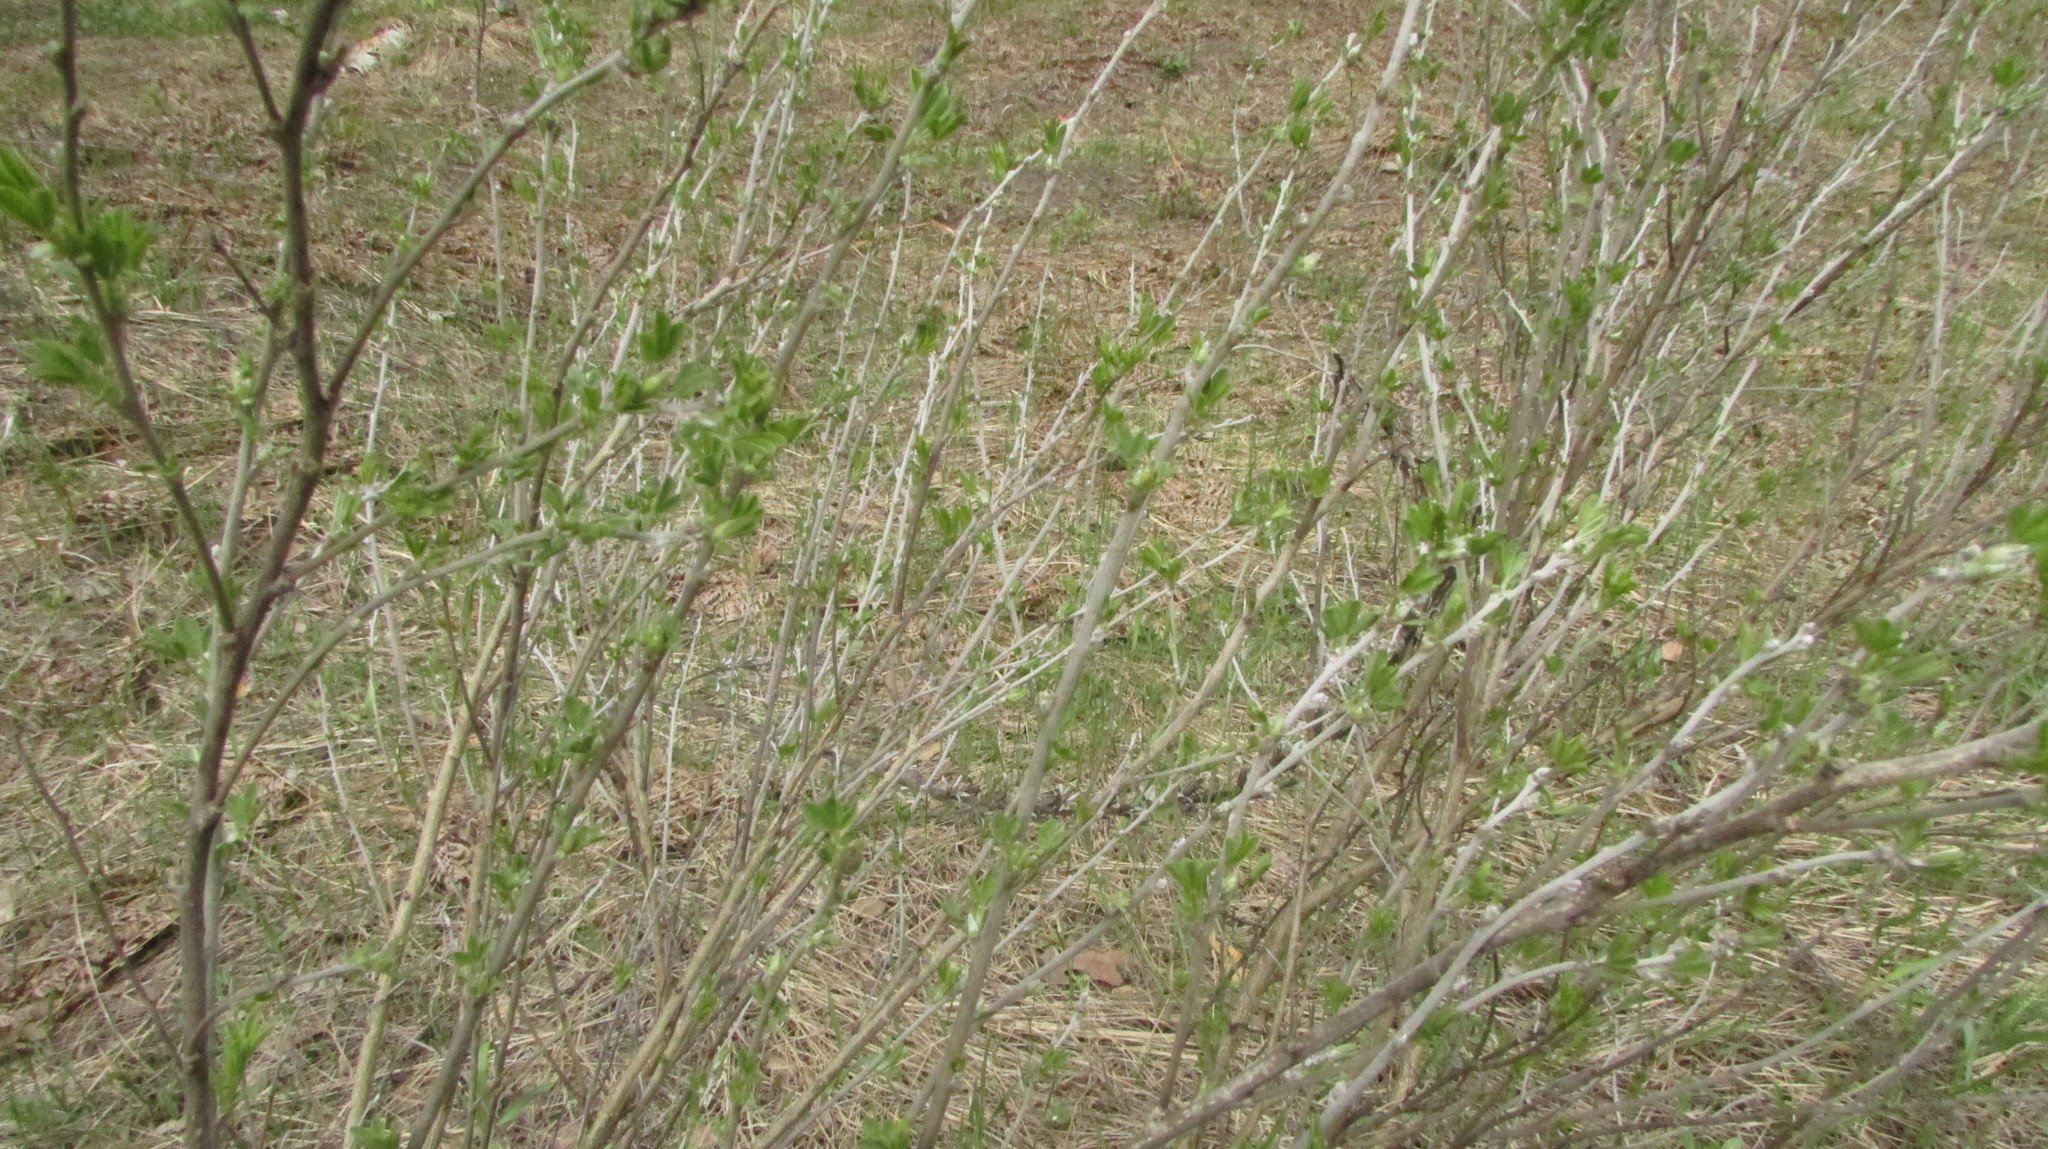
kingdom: Plantae
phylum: Tracheophyta
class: Magnoliopsida
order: Fabales
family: Fabaceae
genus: Chamaecytisus
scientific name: Chamaecytisus ruthenicus
